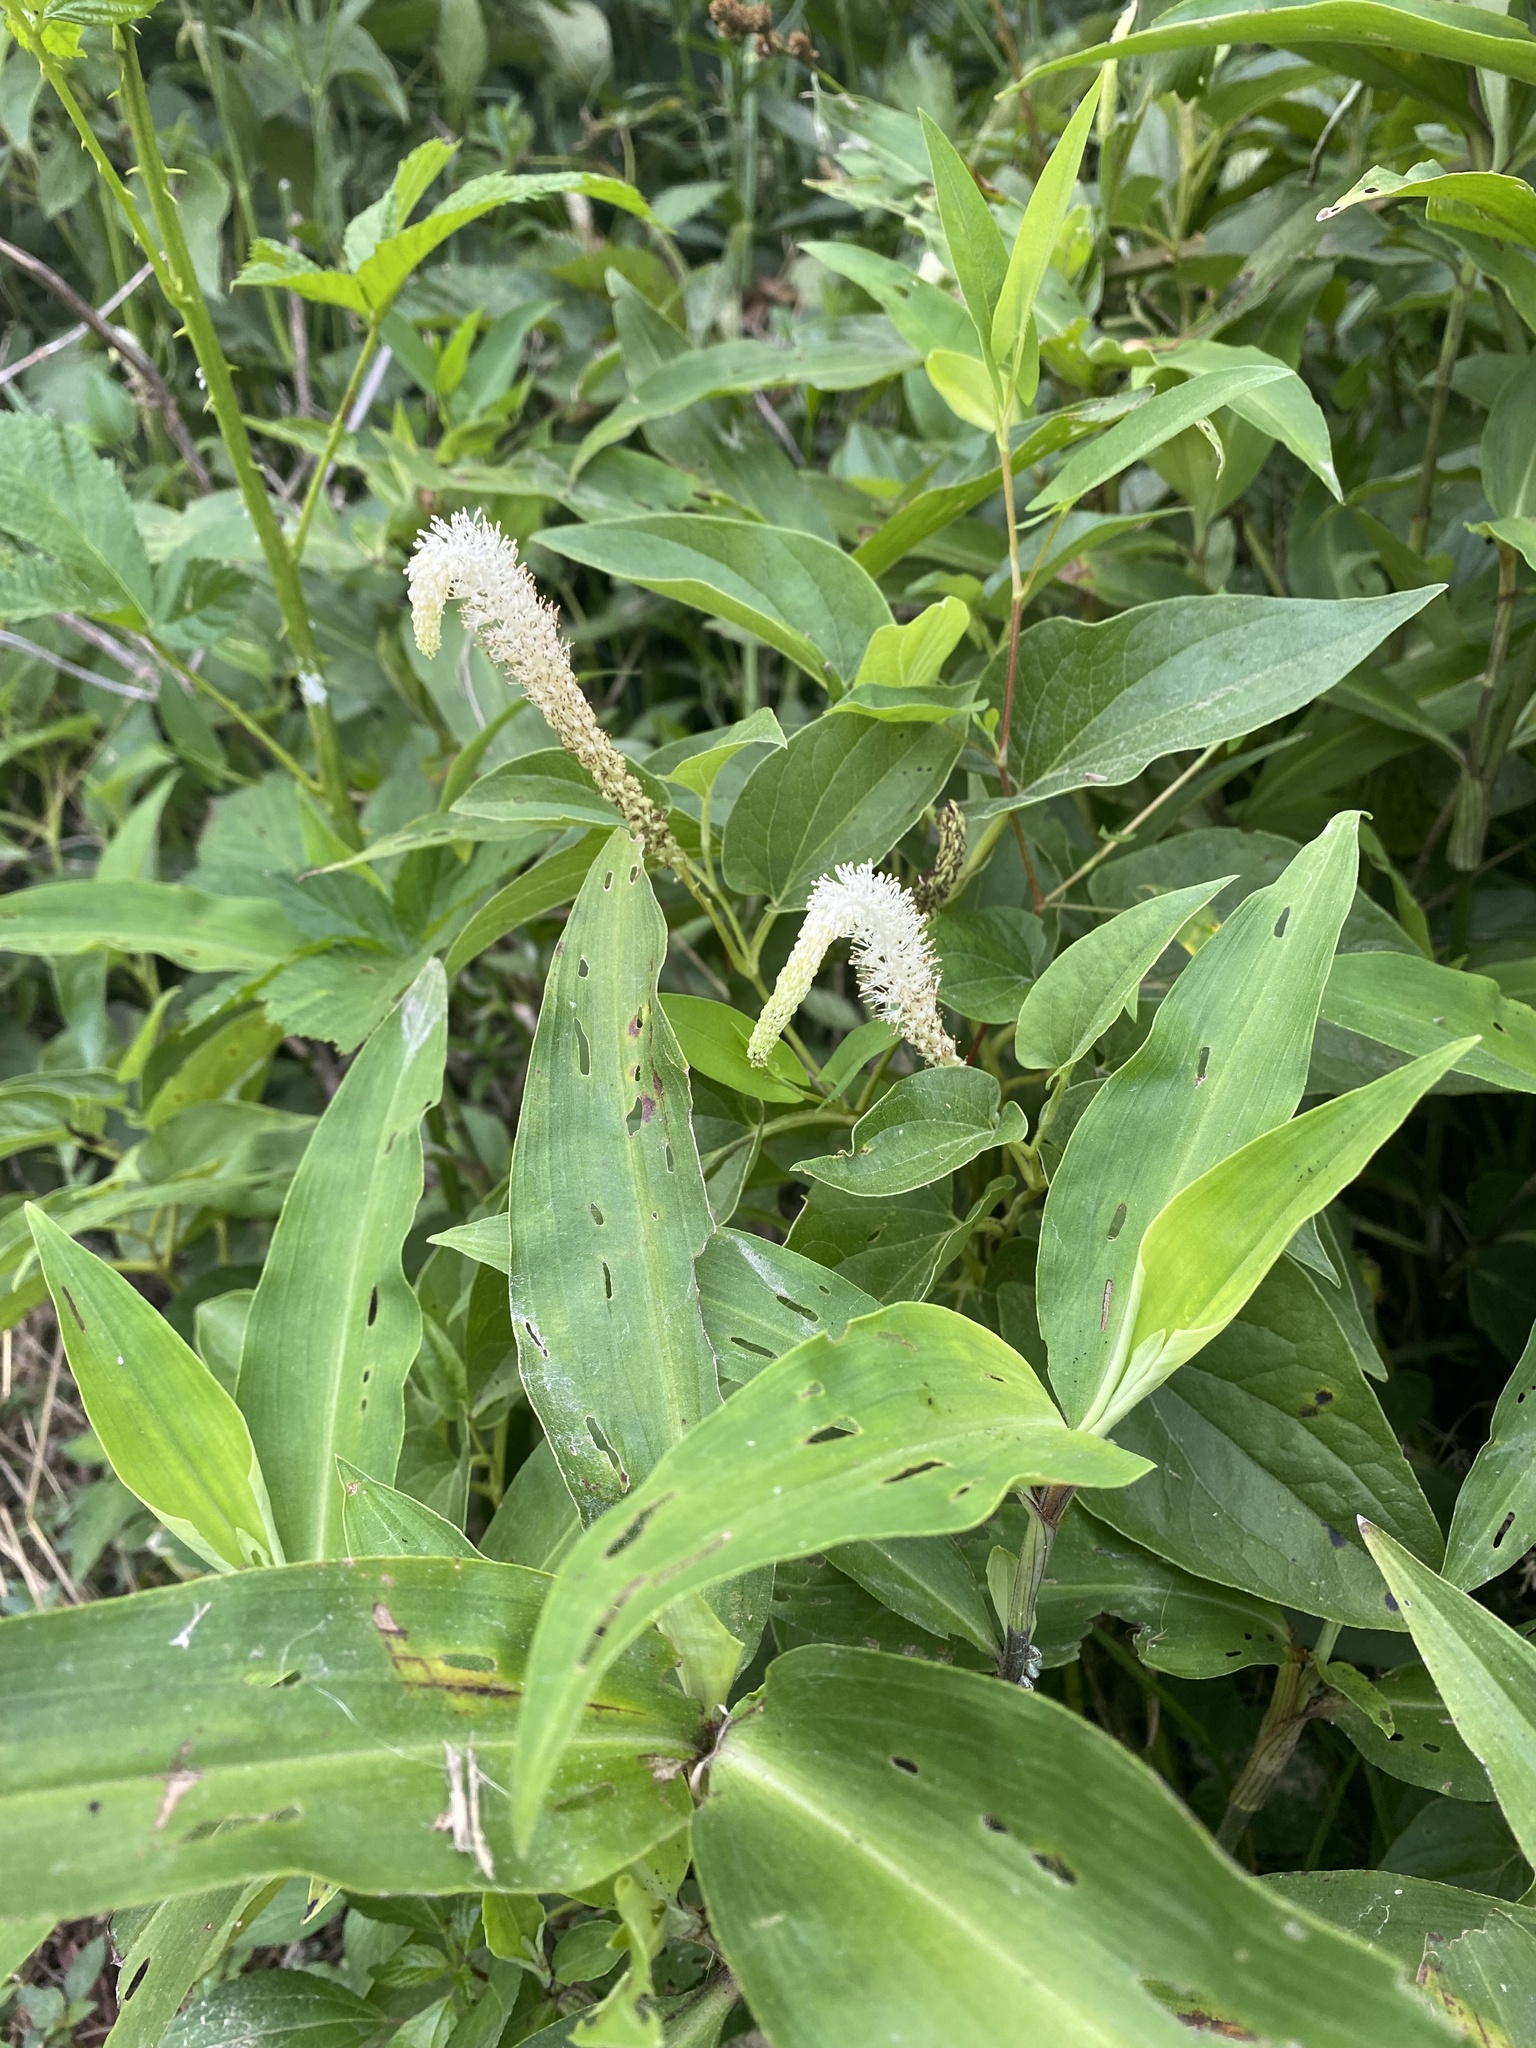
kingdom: Plantae
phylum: Tracheophyta
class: Magnoliopsida
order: Piperales
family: Saururaceae
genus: Saururus
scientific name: Saururus cernuus
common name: Lizard's-tail
